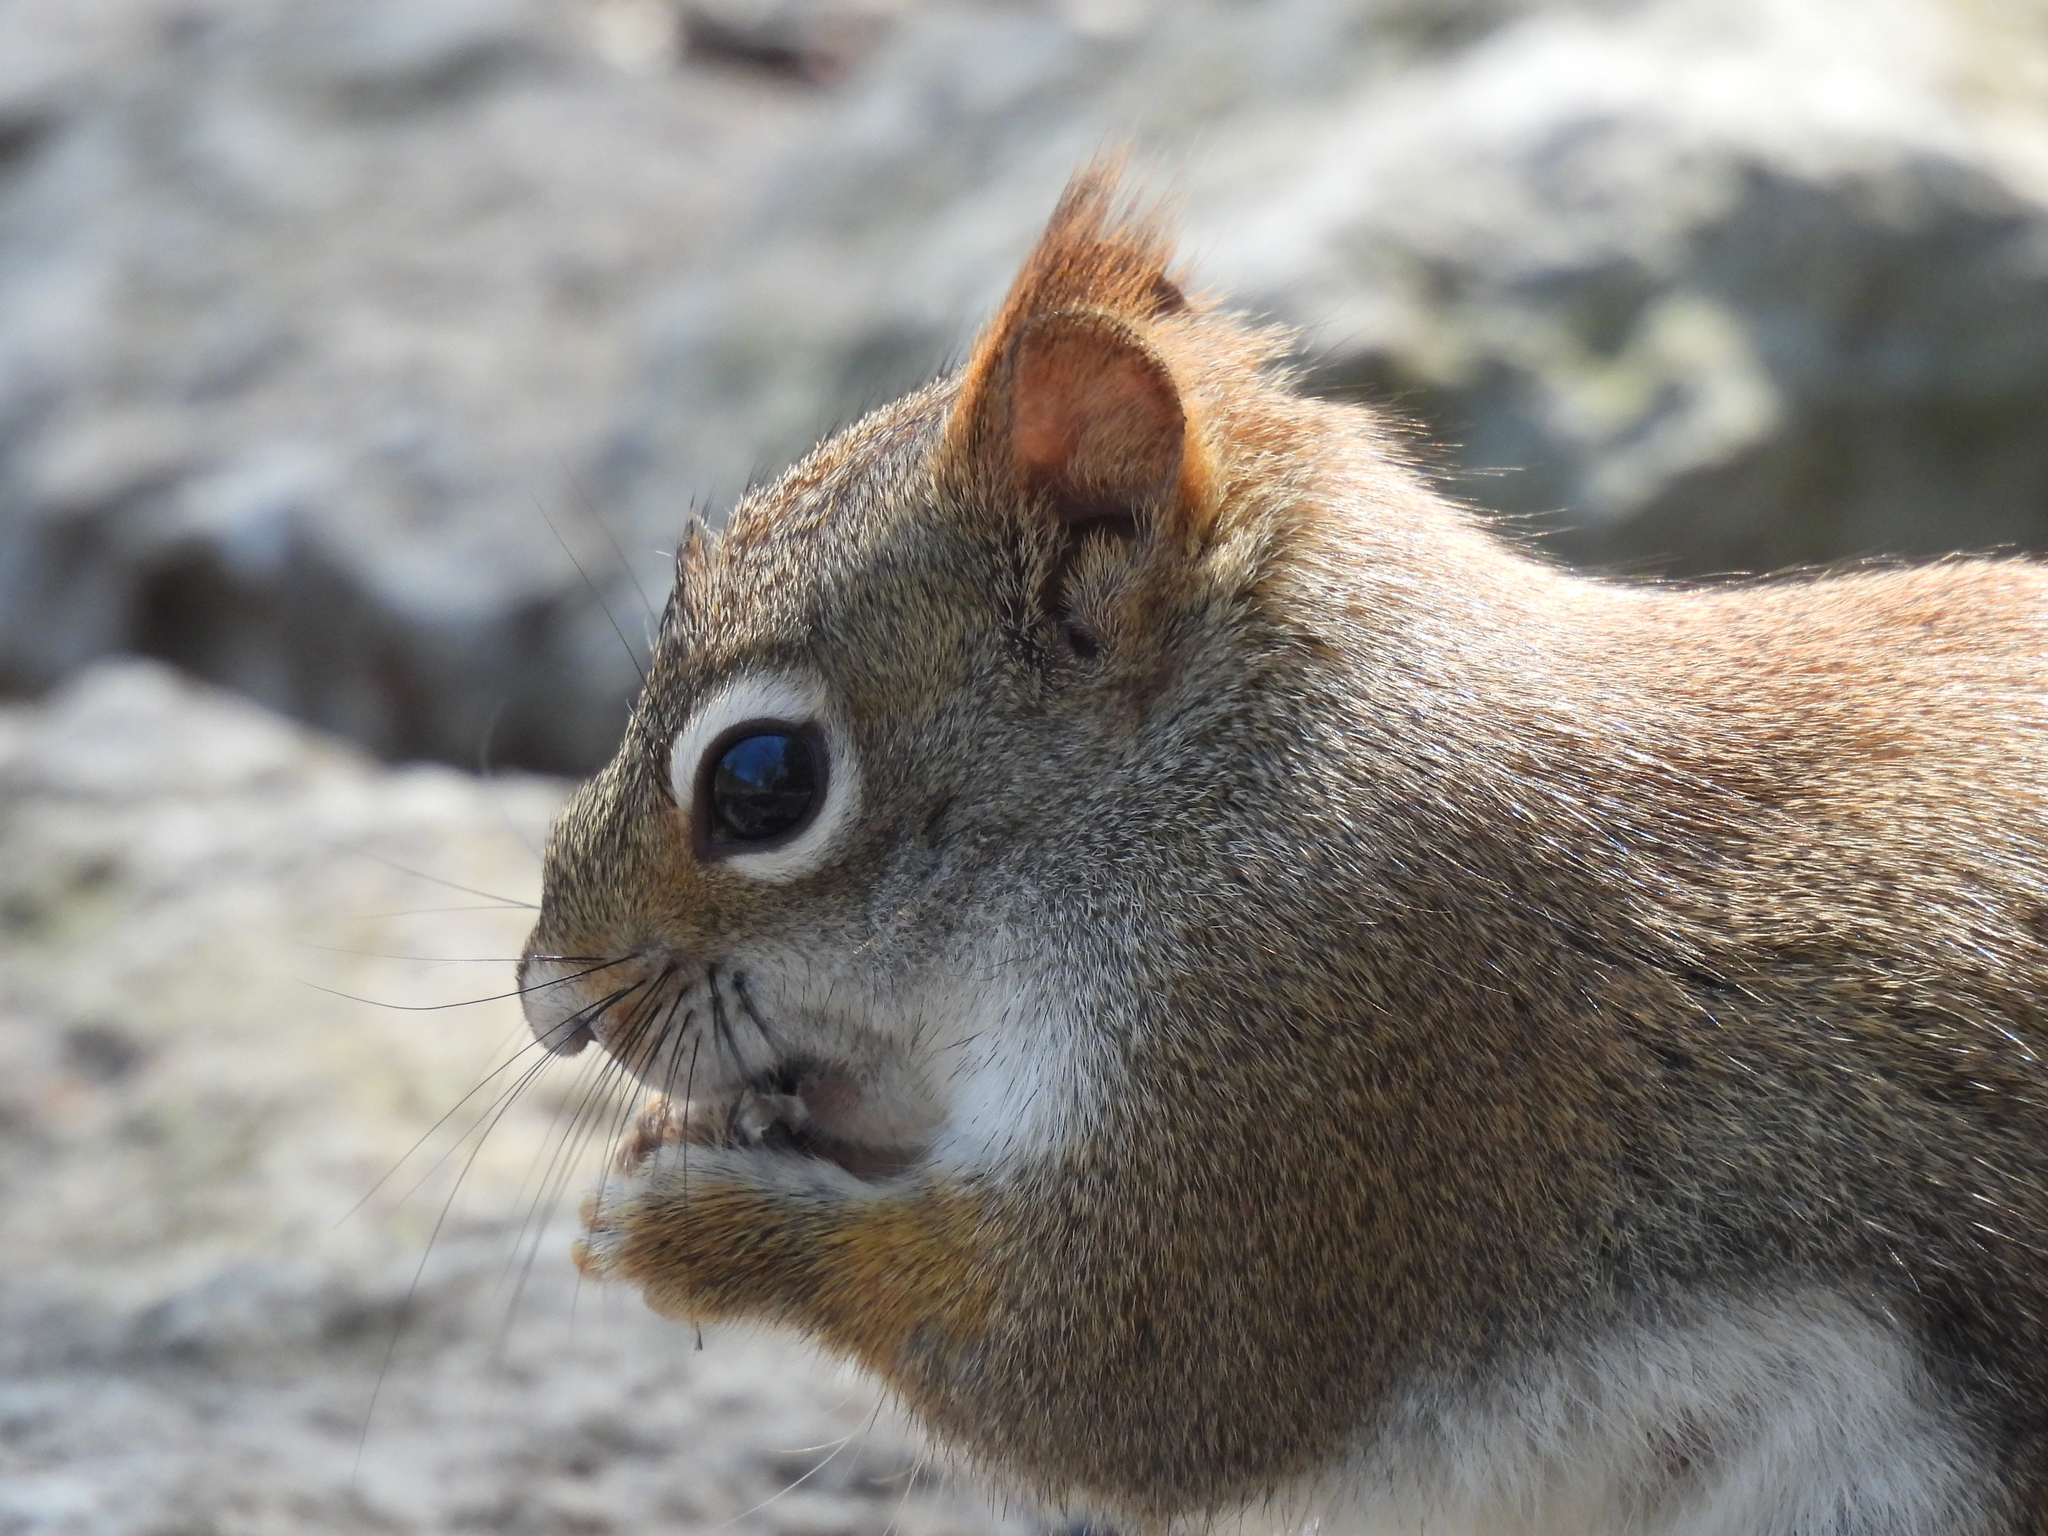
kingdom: Animalia
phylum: Chordata
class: Mammalia
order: Rodentia
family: Sciuridae
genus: Tamiasciurus
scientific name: Tamiasciurus hudsonicus
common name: Red squirrel
